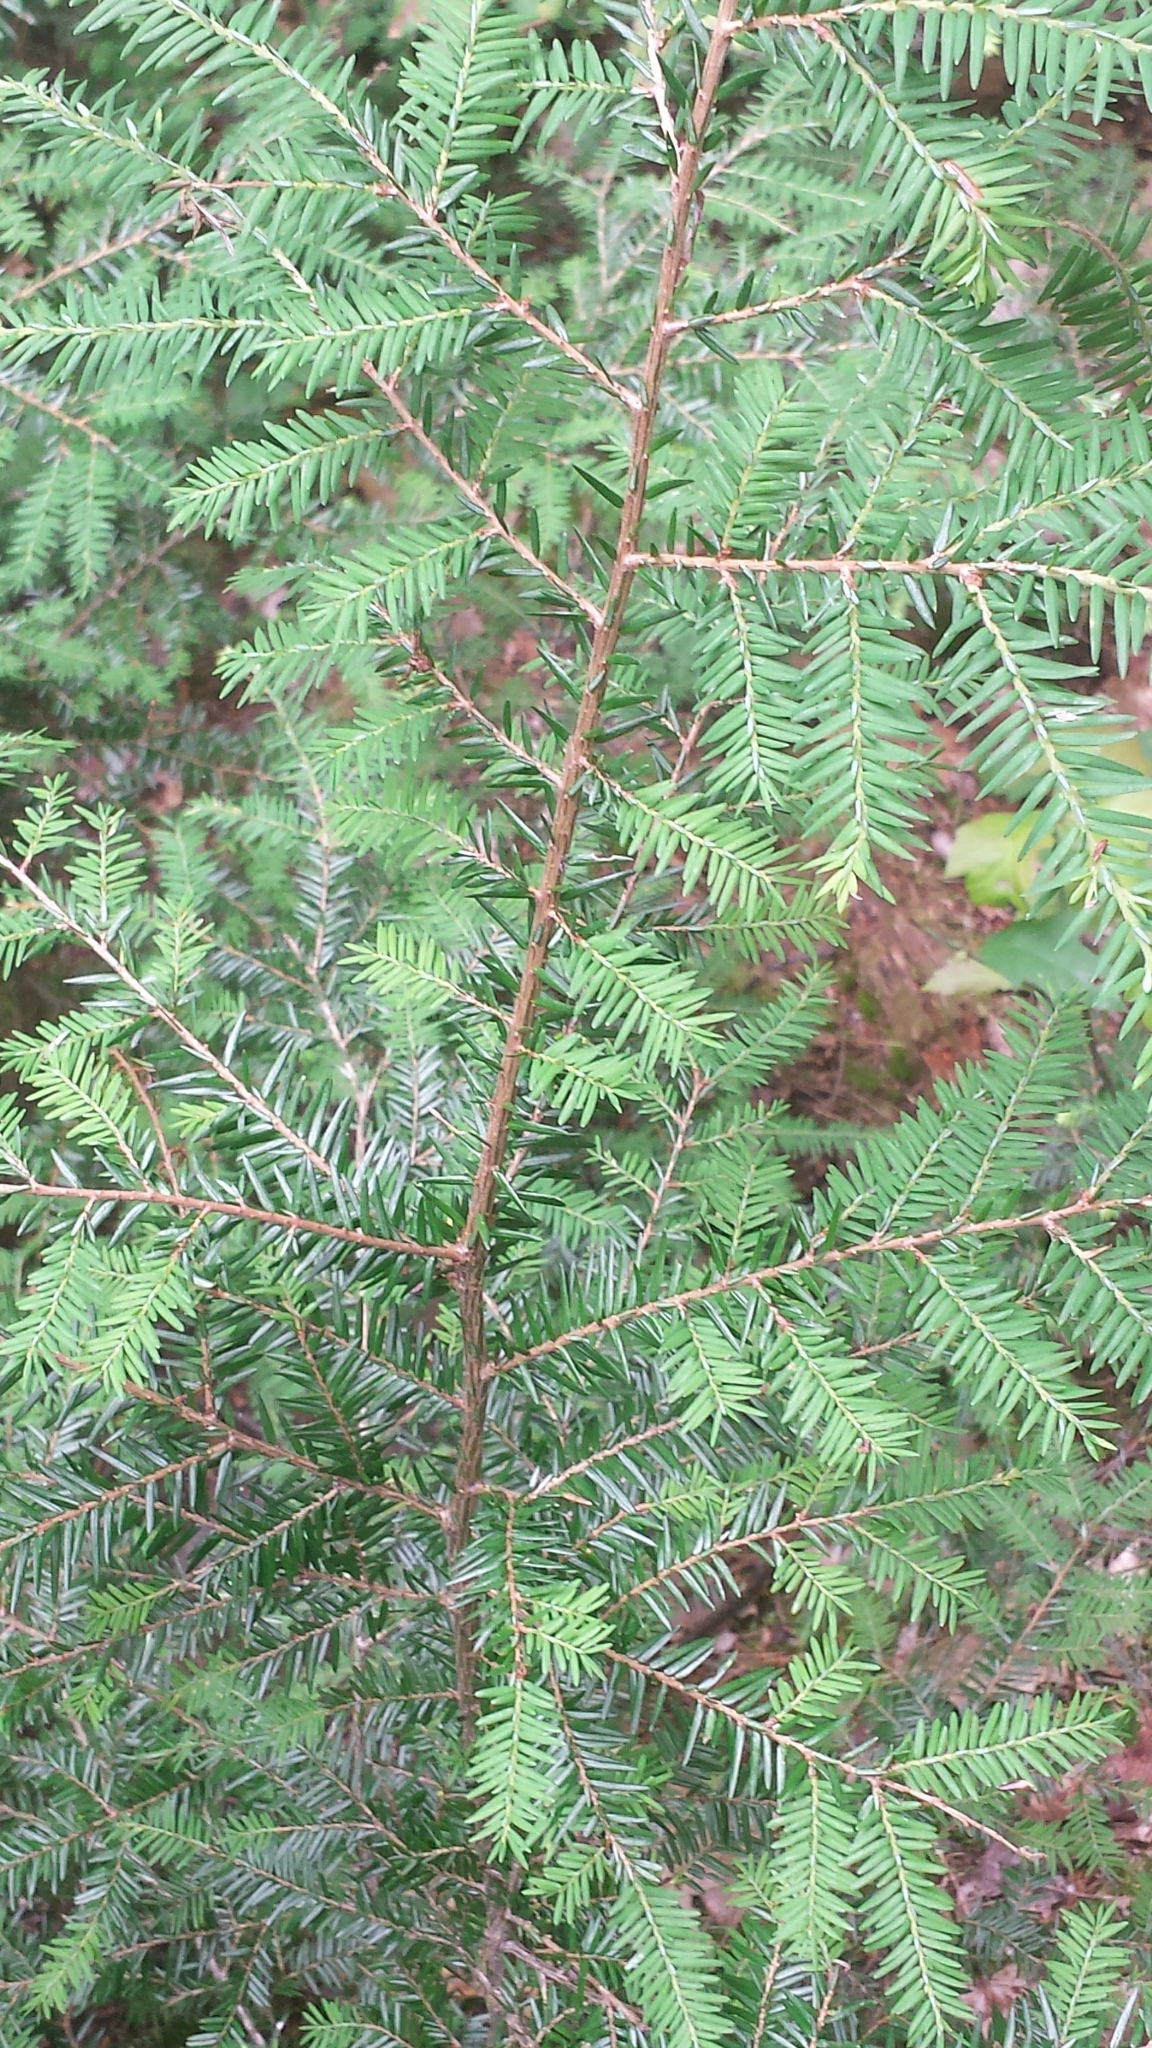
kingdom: Plantae
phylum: Tracheophyta
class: Pinopsida
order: Pinales
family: Pinaceae
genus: Tsuga
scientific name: Tsuga canadensis
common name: Eastern hemlock
